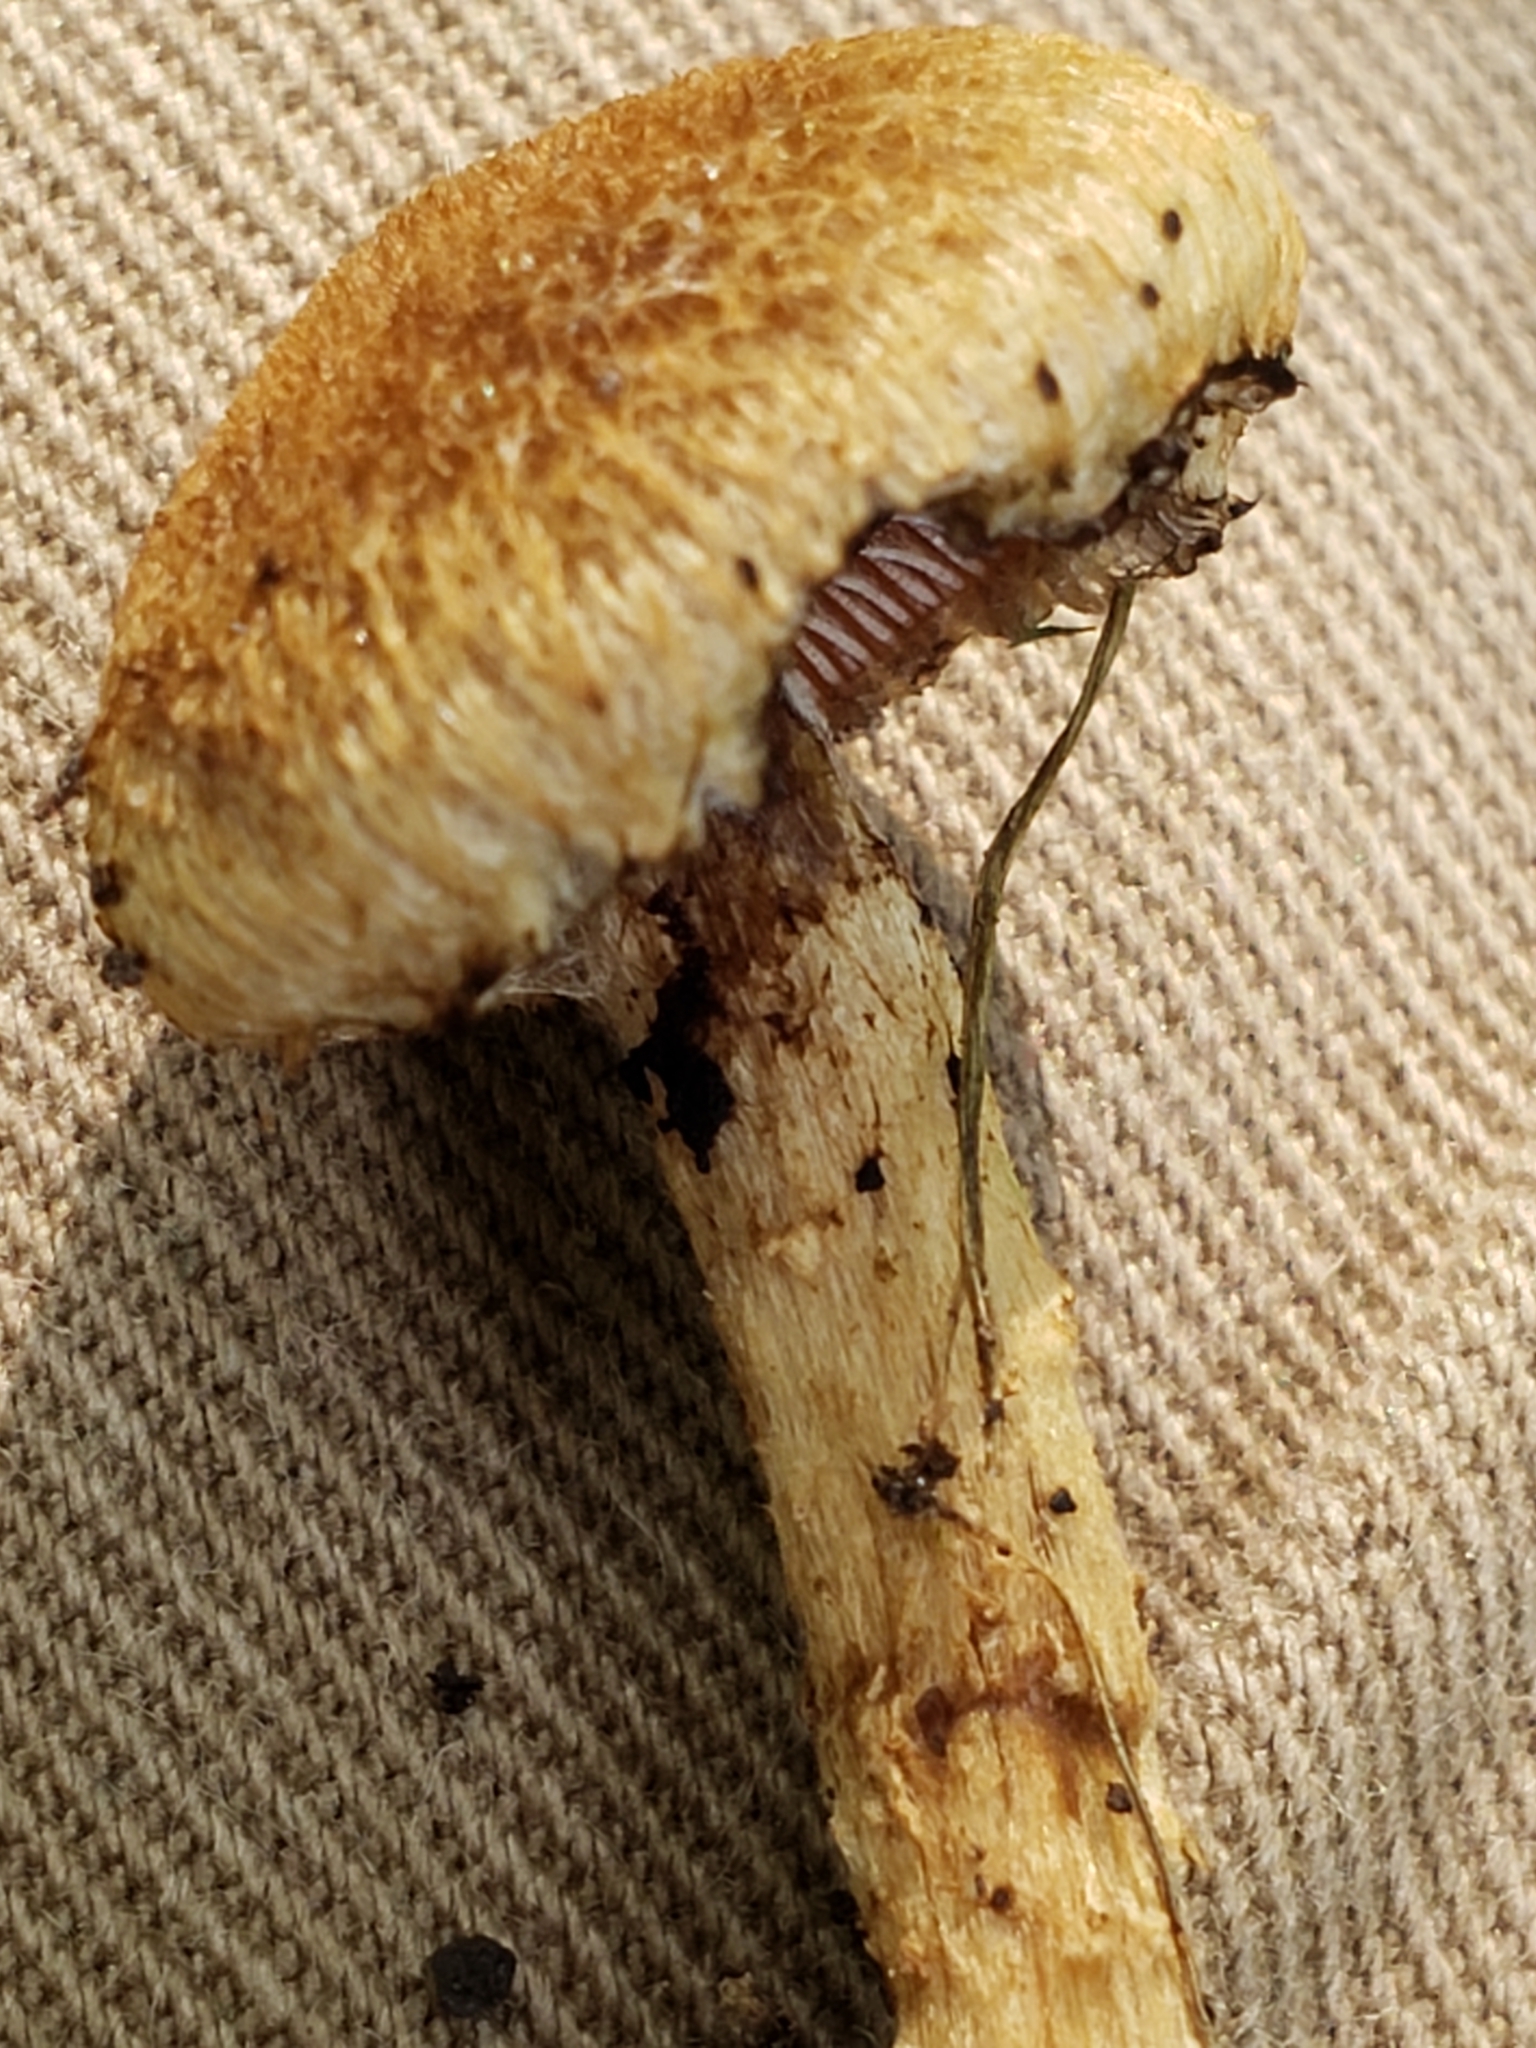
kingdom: Fungi
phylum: Basidiomycota
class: Agaricomycetes
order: Agaricales
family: Psathyrellaceae
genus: Lacrymaria
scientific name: Lacrymaria lacrymabunda
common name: Weeping widow
